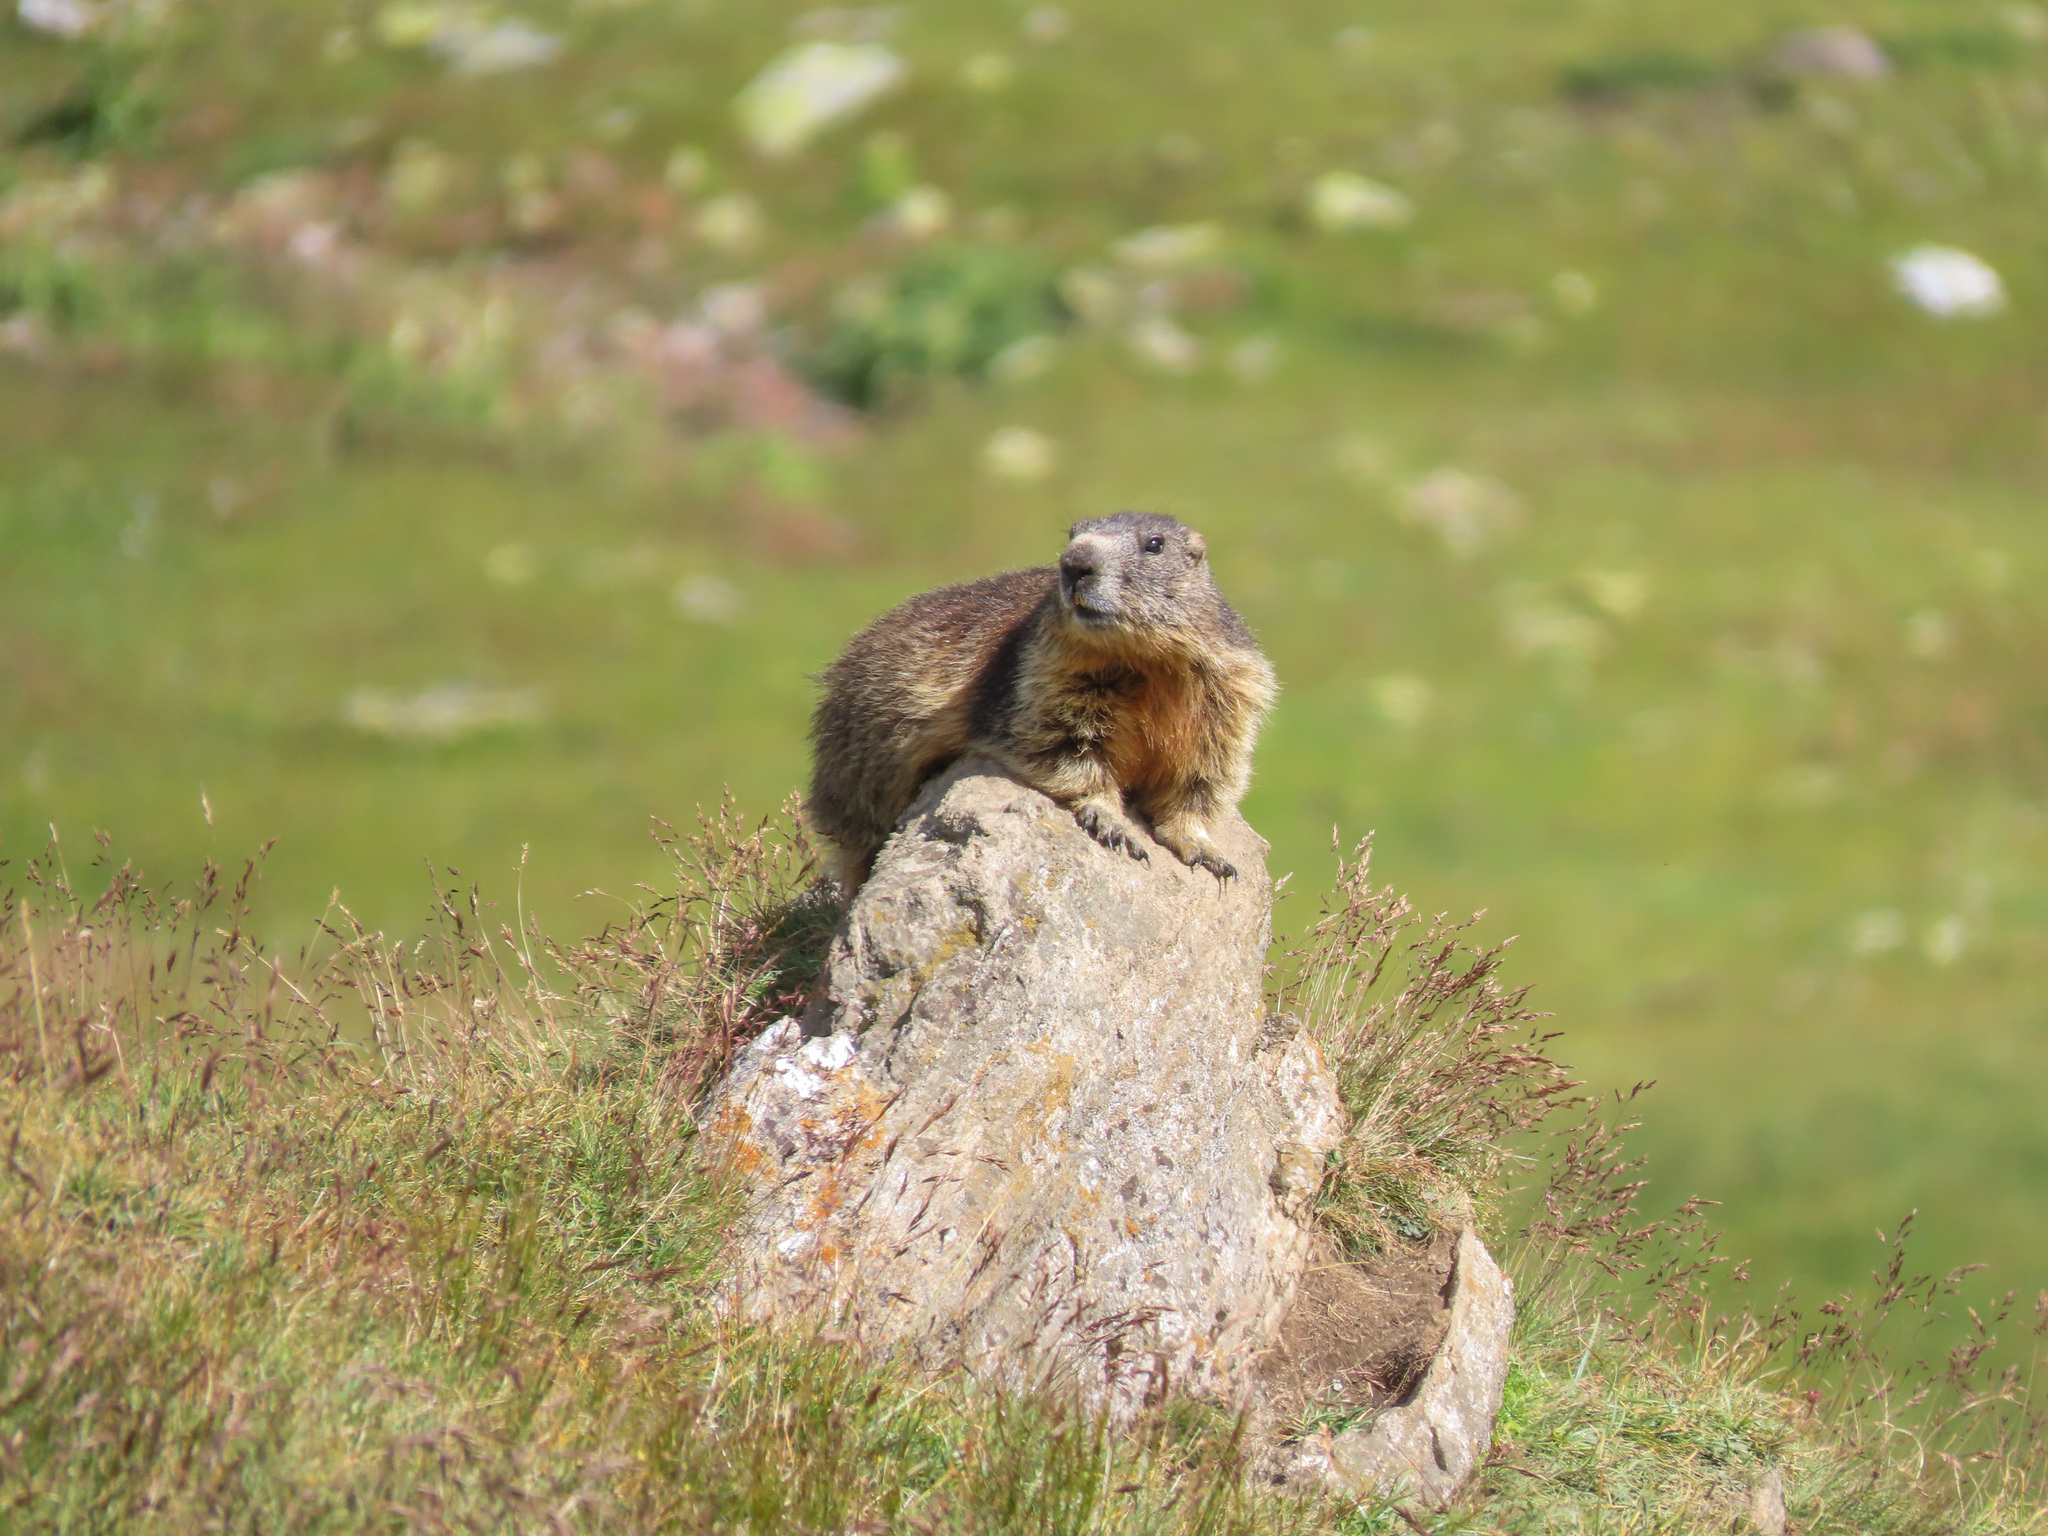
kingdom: Animalia
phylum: Chordata
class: Mammalia
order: Rodentia
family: Sciuridae
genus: Marmota
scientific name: Marmota marmota
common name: Alpine marmot
